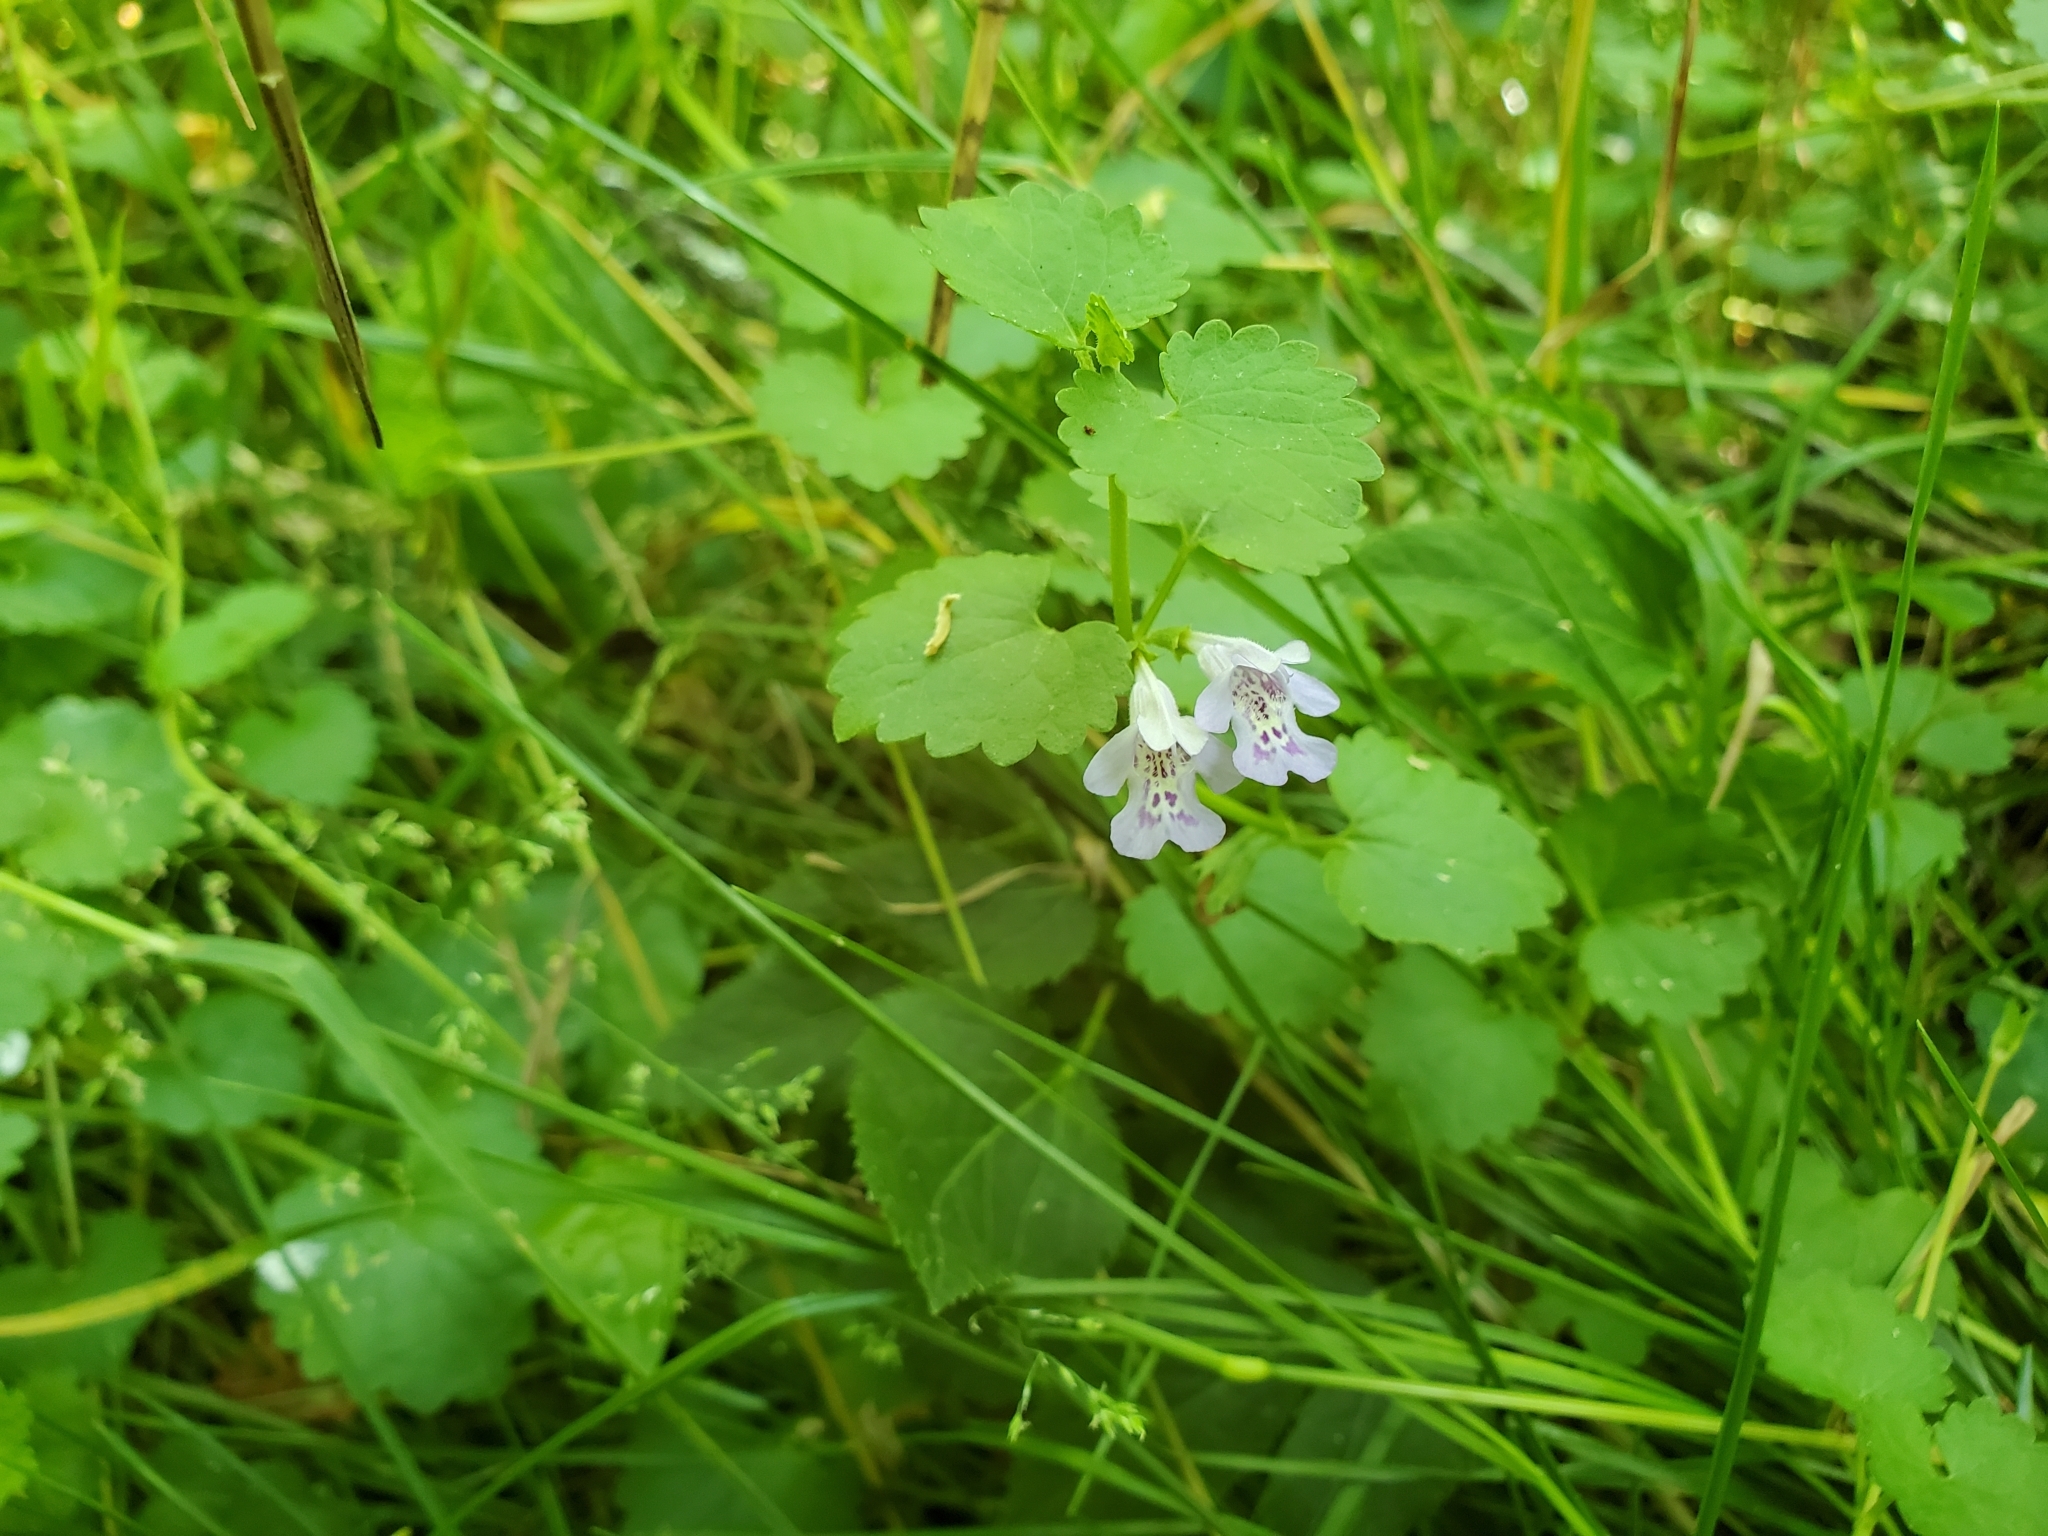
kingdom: Plantae
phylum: Tracheophyta
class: Magnoliopsida
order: Lamiales
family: Lamiaceae
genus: Glechoma
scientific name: Glechoma hederacea
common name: Ground ivy
